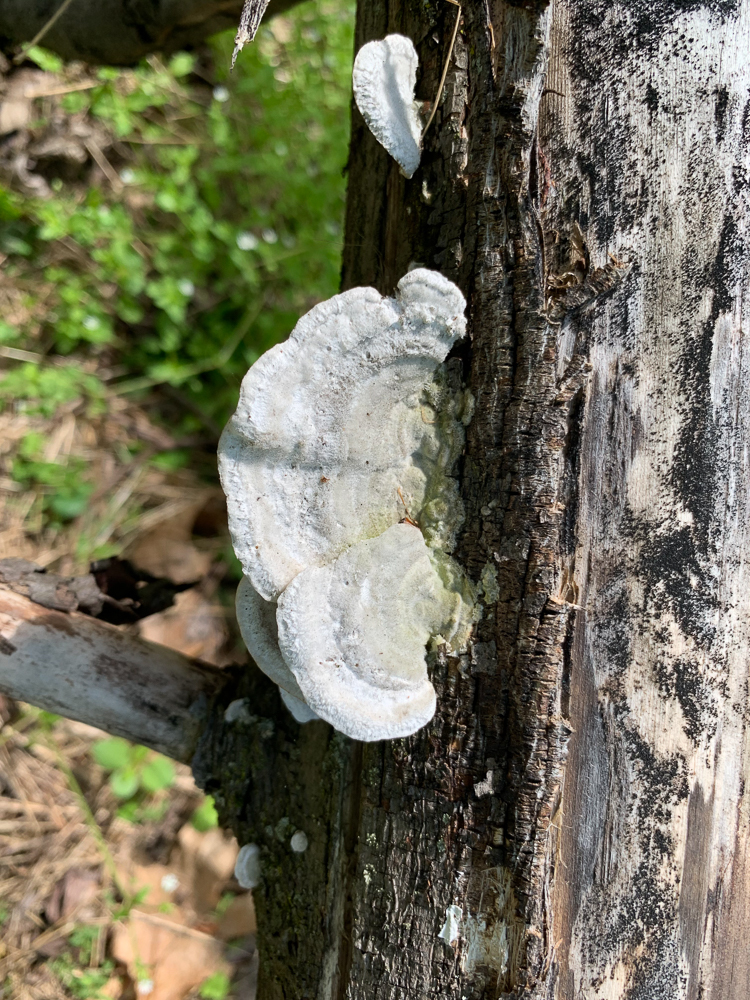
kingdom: Fungi
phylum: Basidiomycota
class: Agaricomycetes
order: Polyporales
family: Polyporaceae
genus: Trametes
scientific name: Trametes gibbosa
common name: Lumpy bracket
